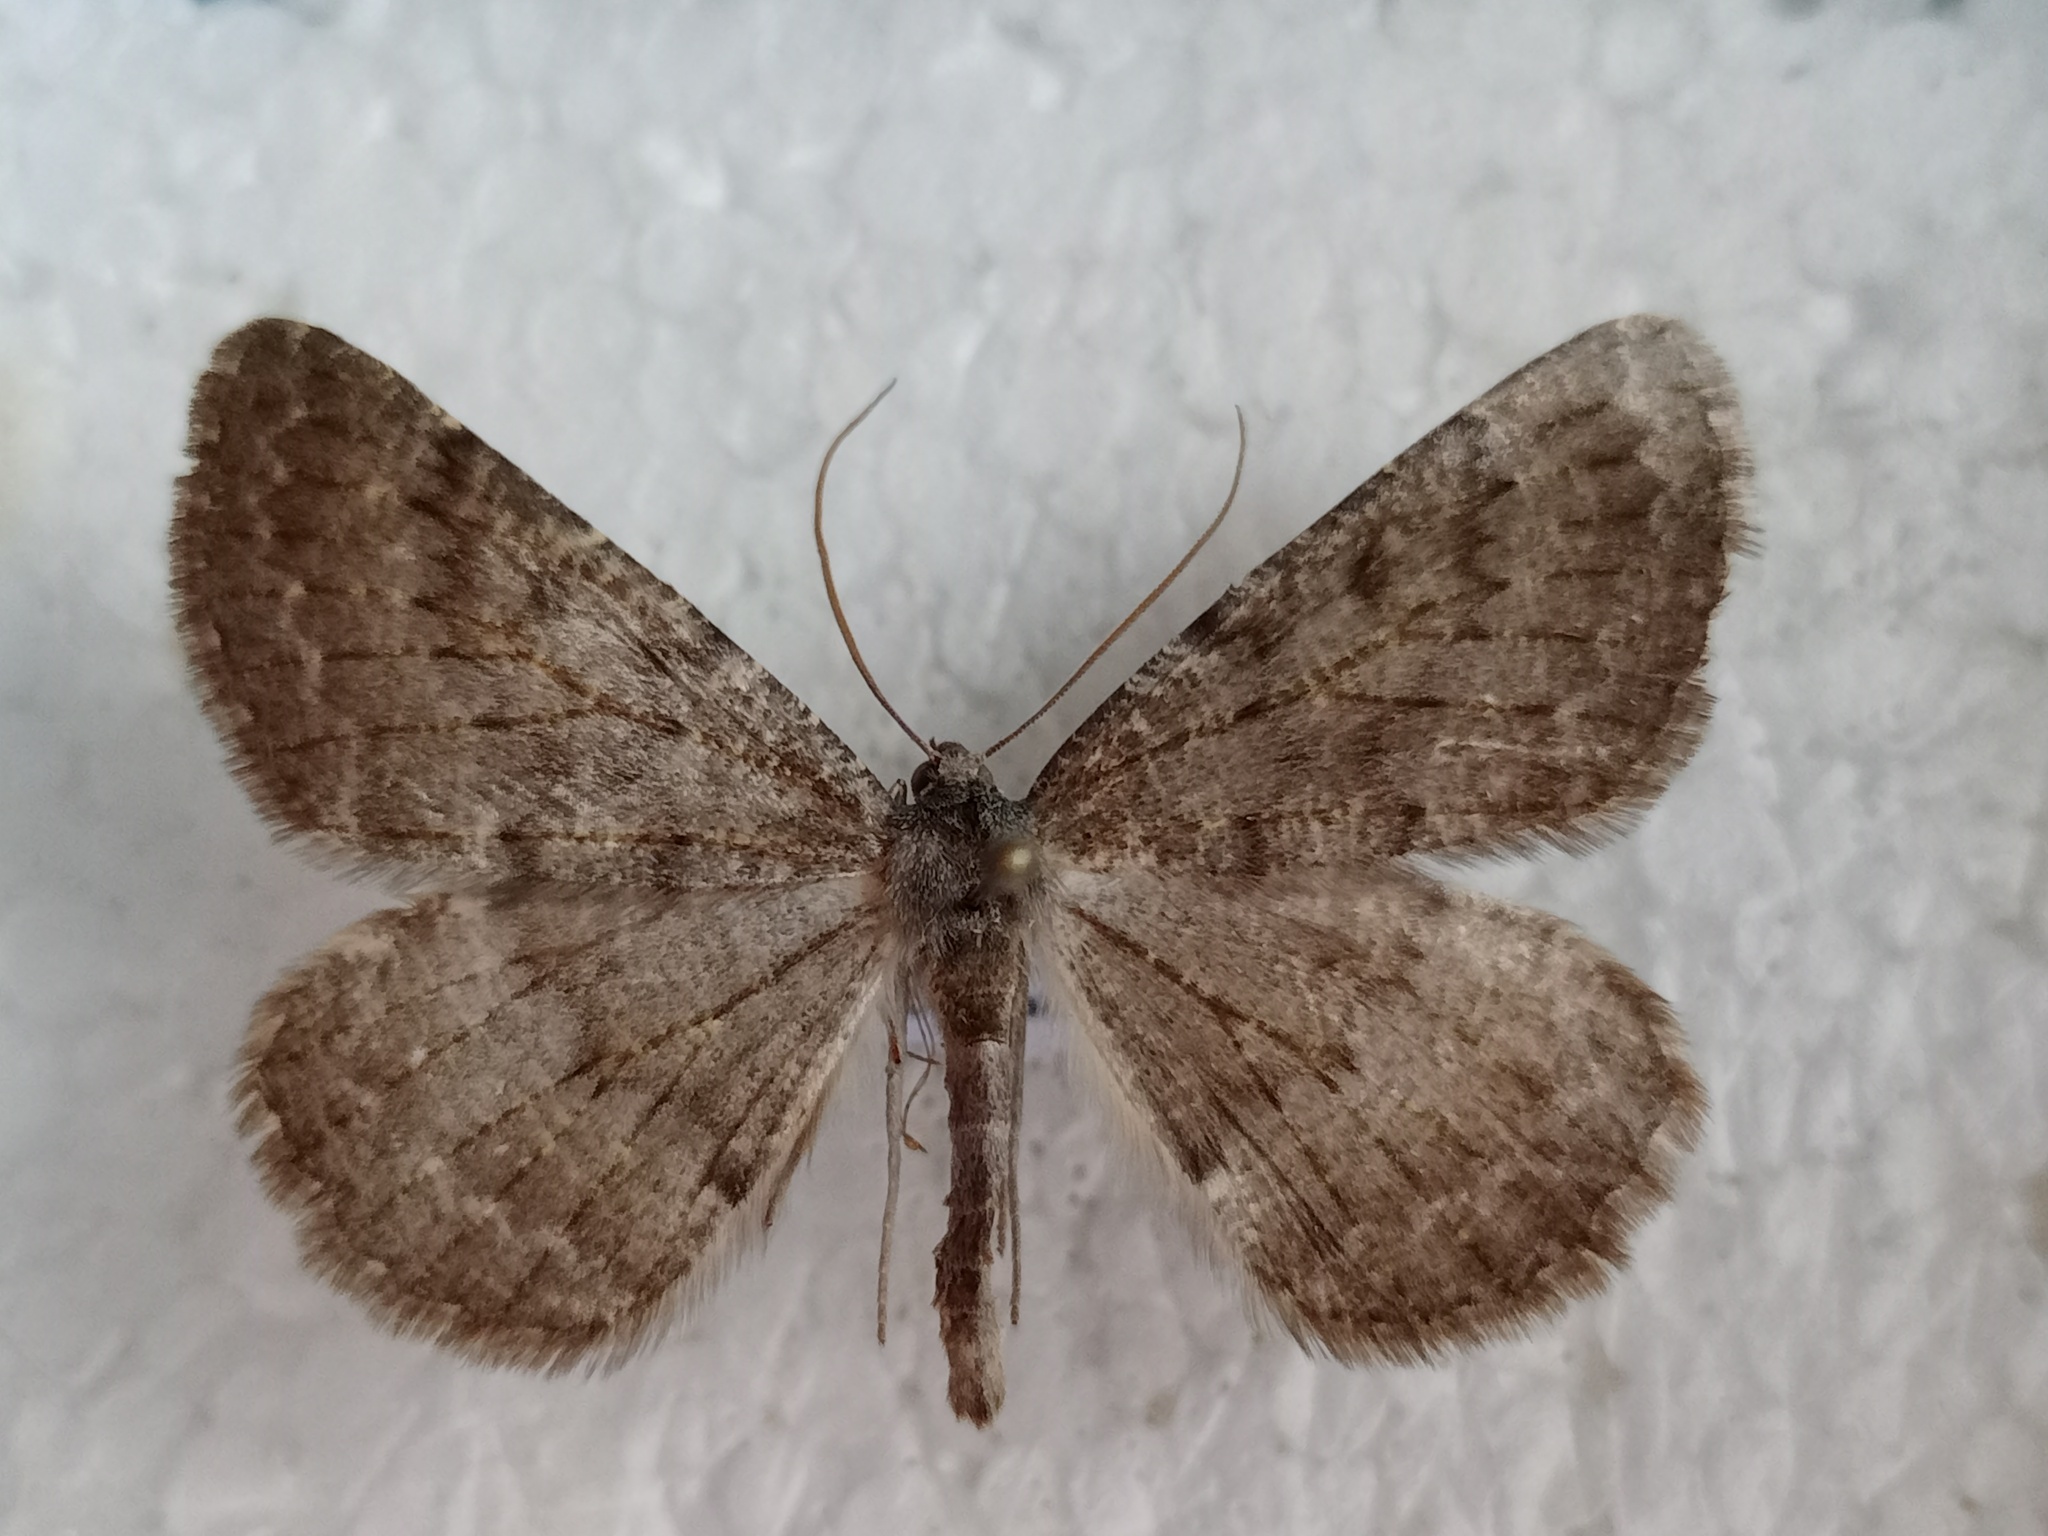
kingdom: Animalia
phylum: Arthropoda
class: Insecta
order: Lepidoptera
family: Geometridae
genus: Gnophos
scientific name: Gnophos obfuscata
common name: Scottish annulet
